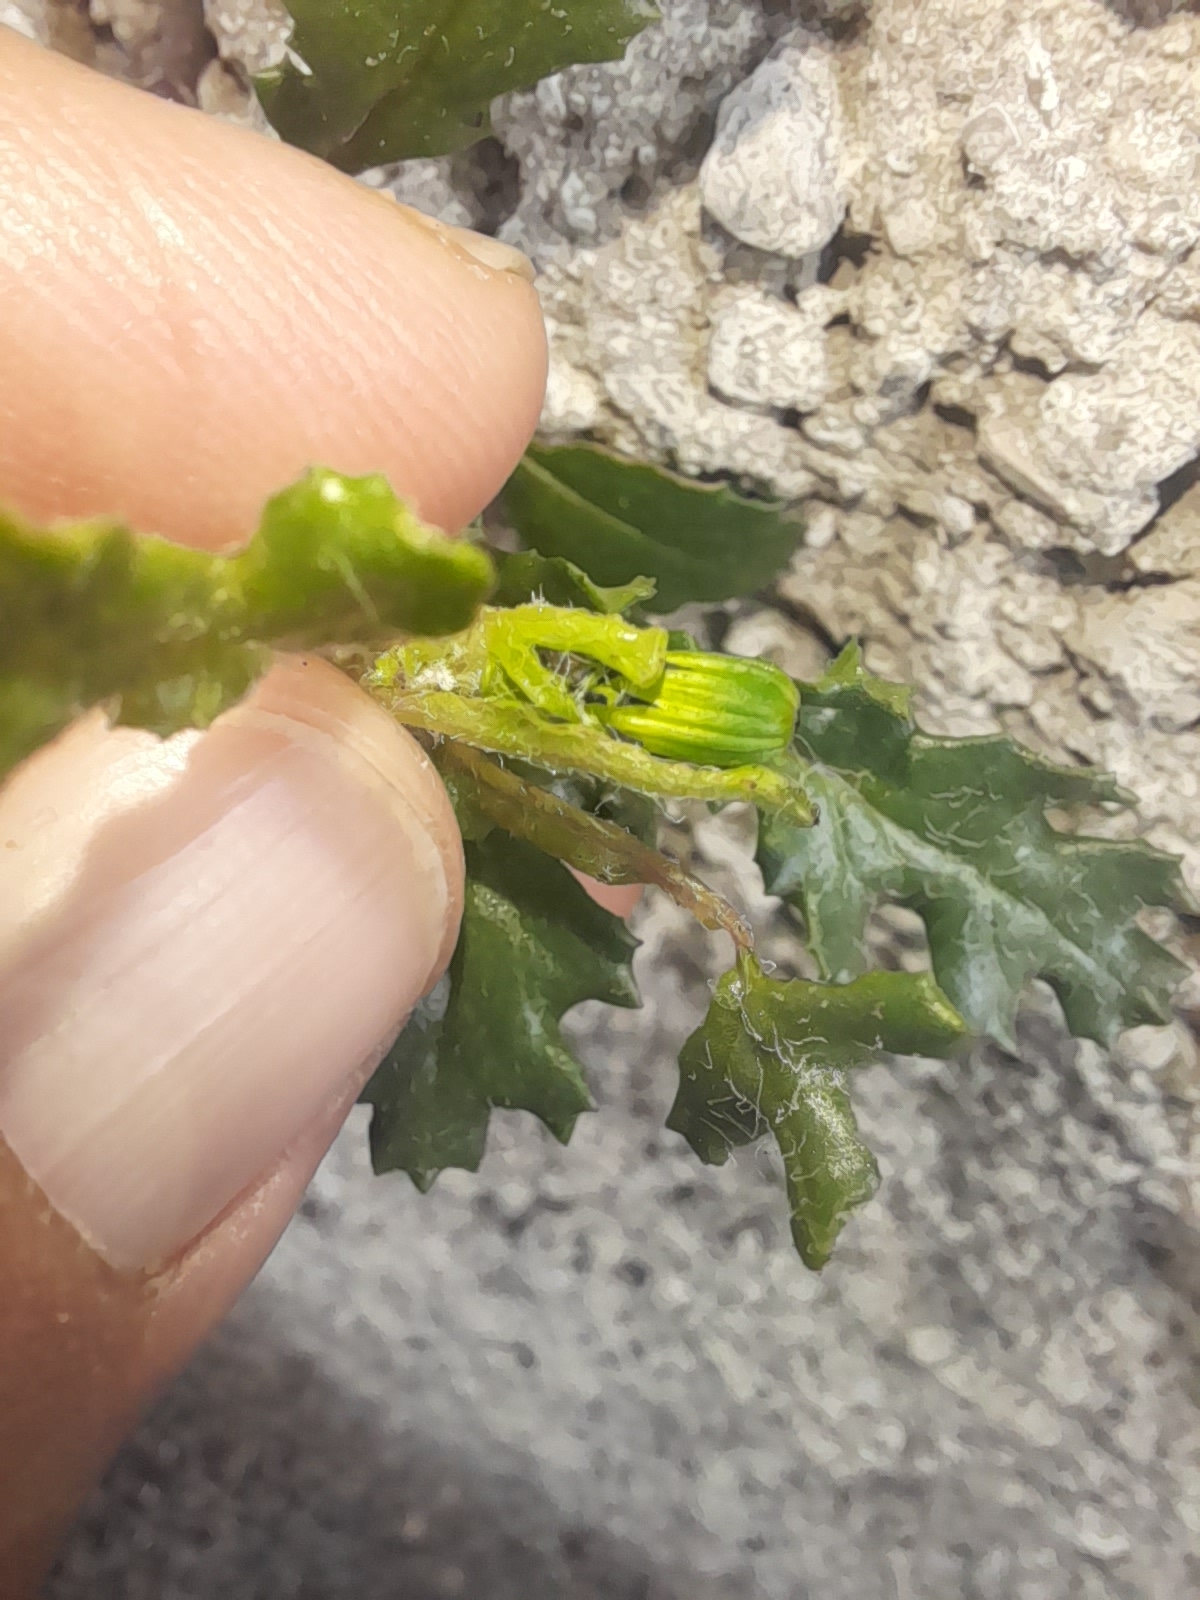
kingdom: Plantae
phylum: Tracheophyta
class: Magnoliopsida
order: Asterales
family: Asteraceae
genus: Senecio
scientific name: Senecio vulgaris
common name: Old-man-in-the-spring
